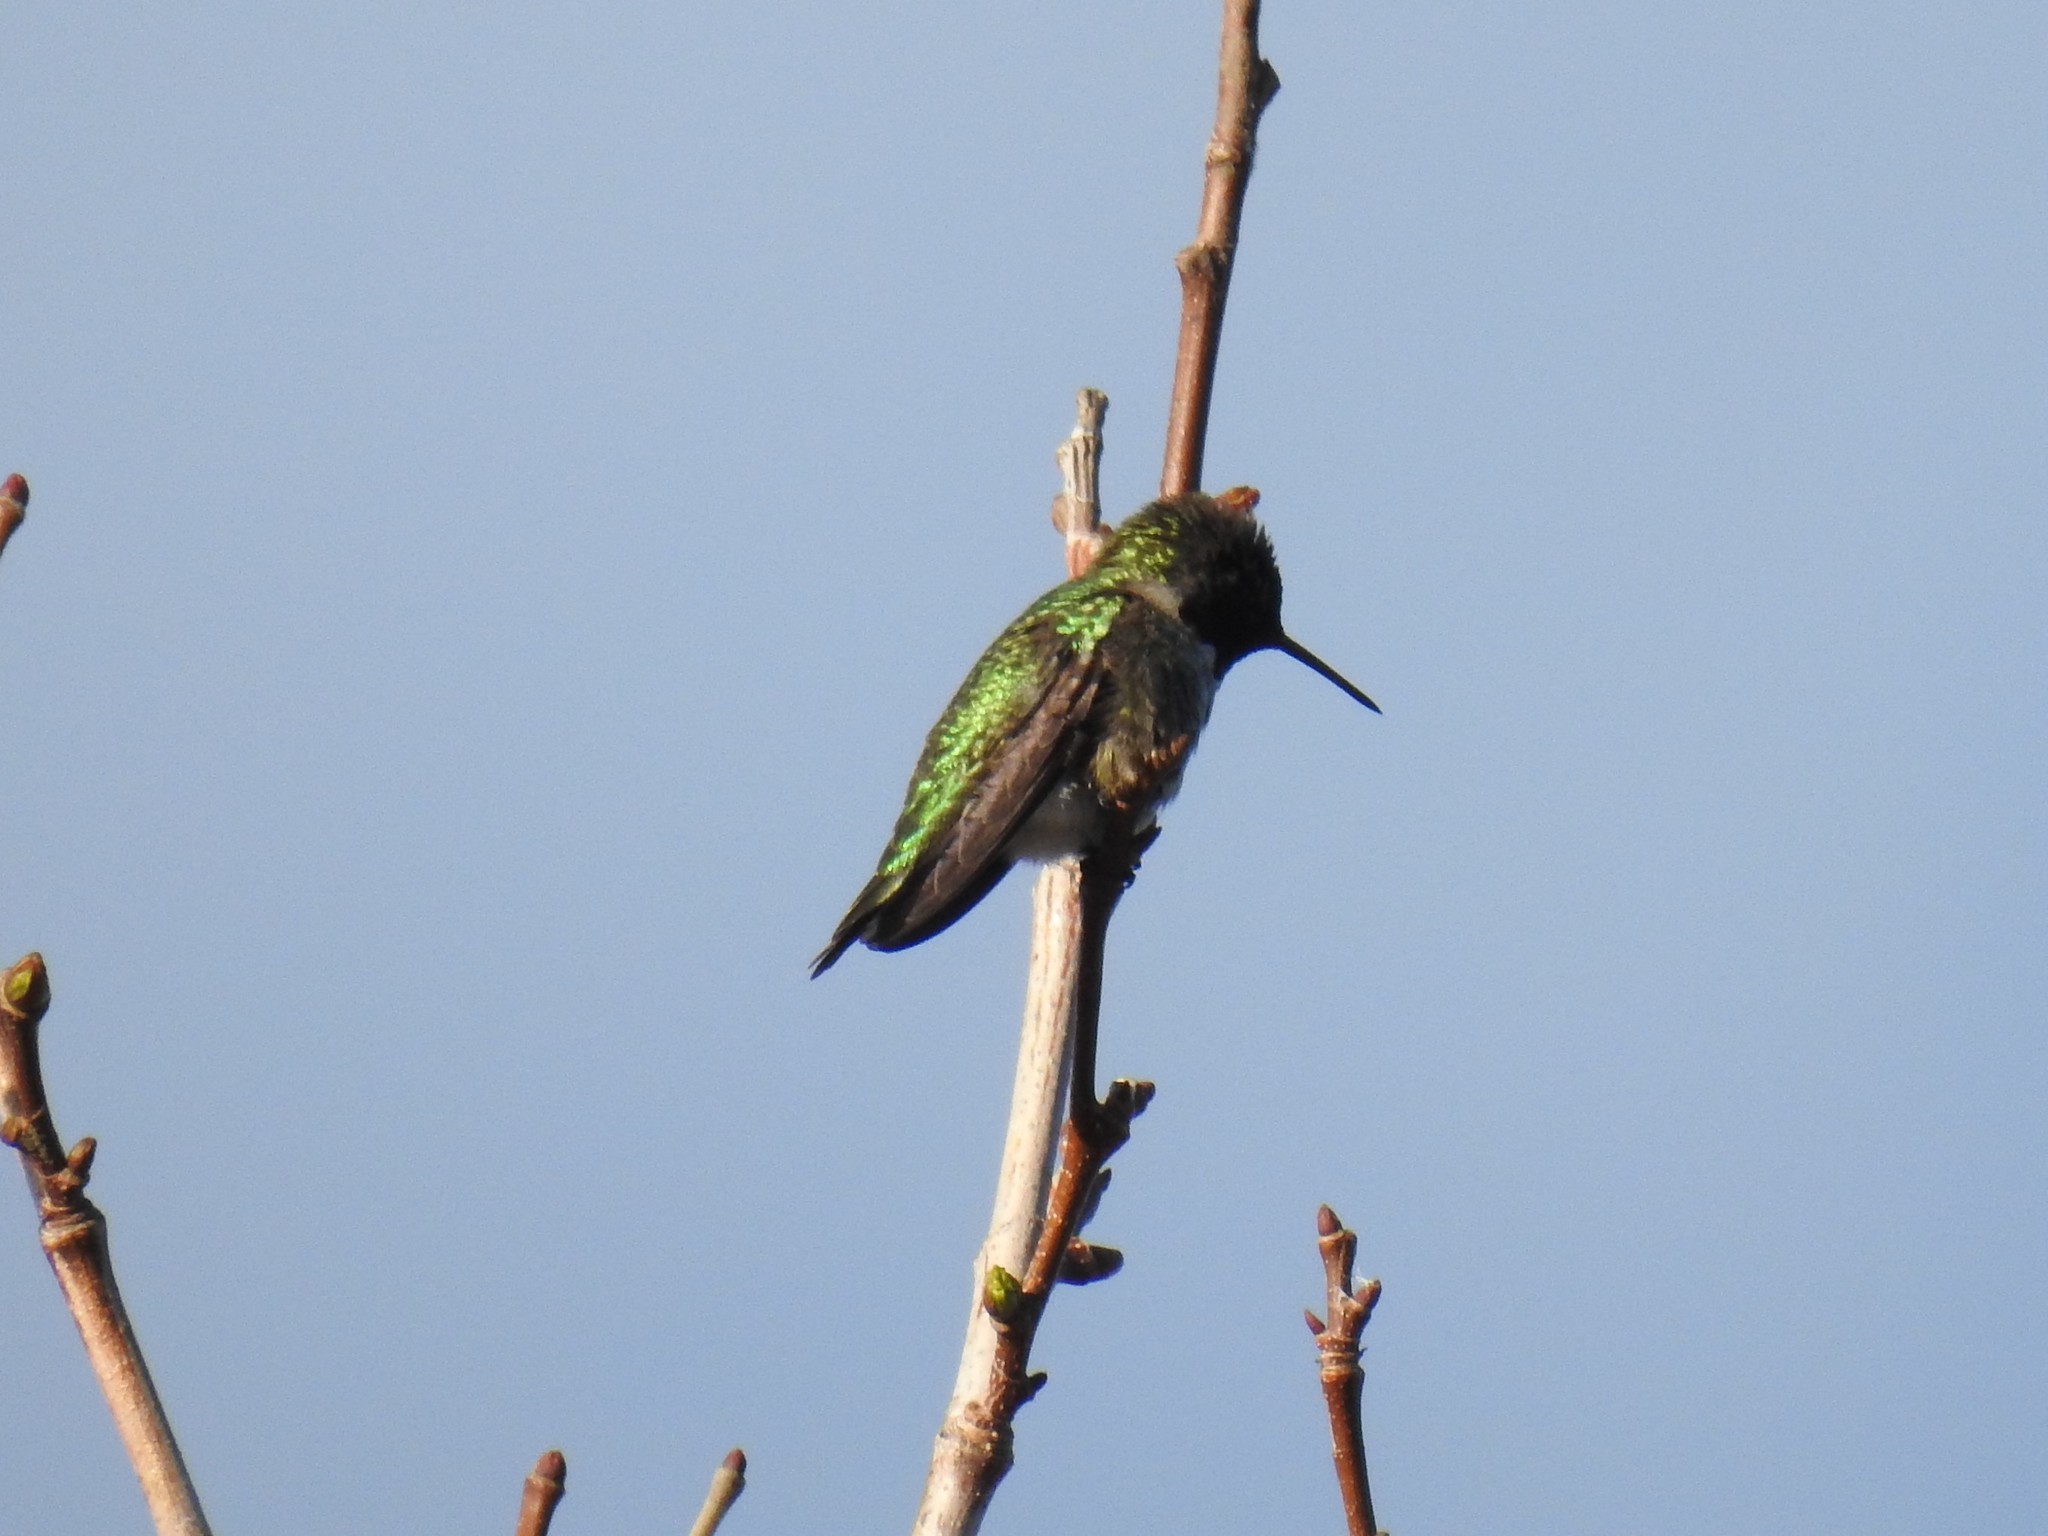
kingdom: Animalia
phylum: Chordata
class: Aves
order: Apodiformes
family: Trochilidae
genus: Calypte
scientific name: Calypte anna
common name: Anna's hummingbird
